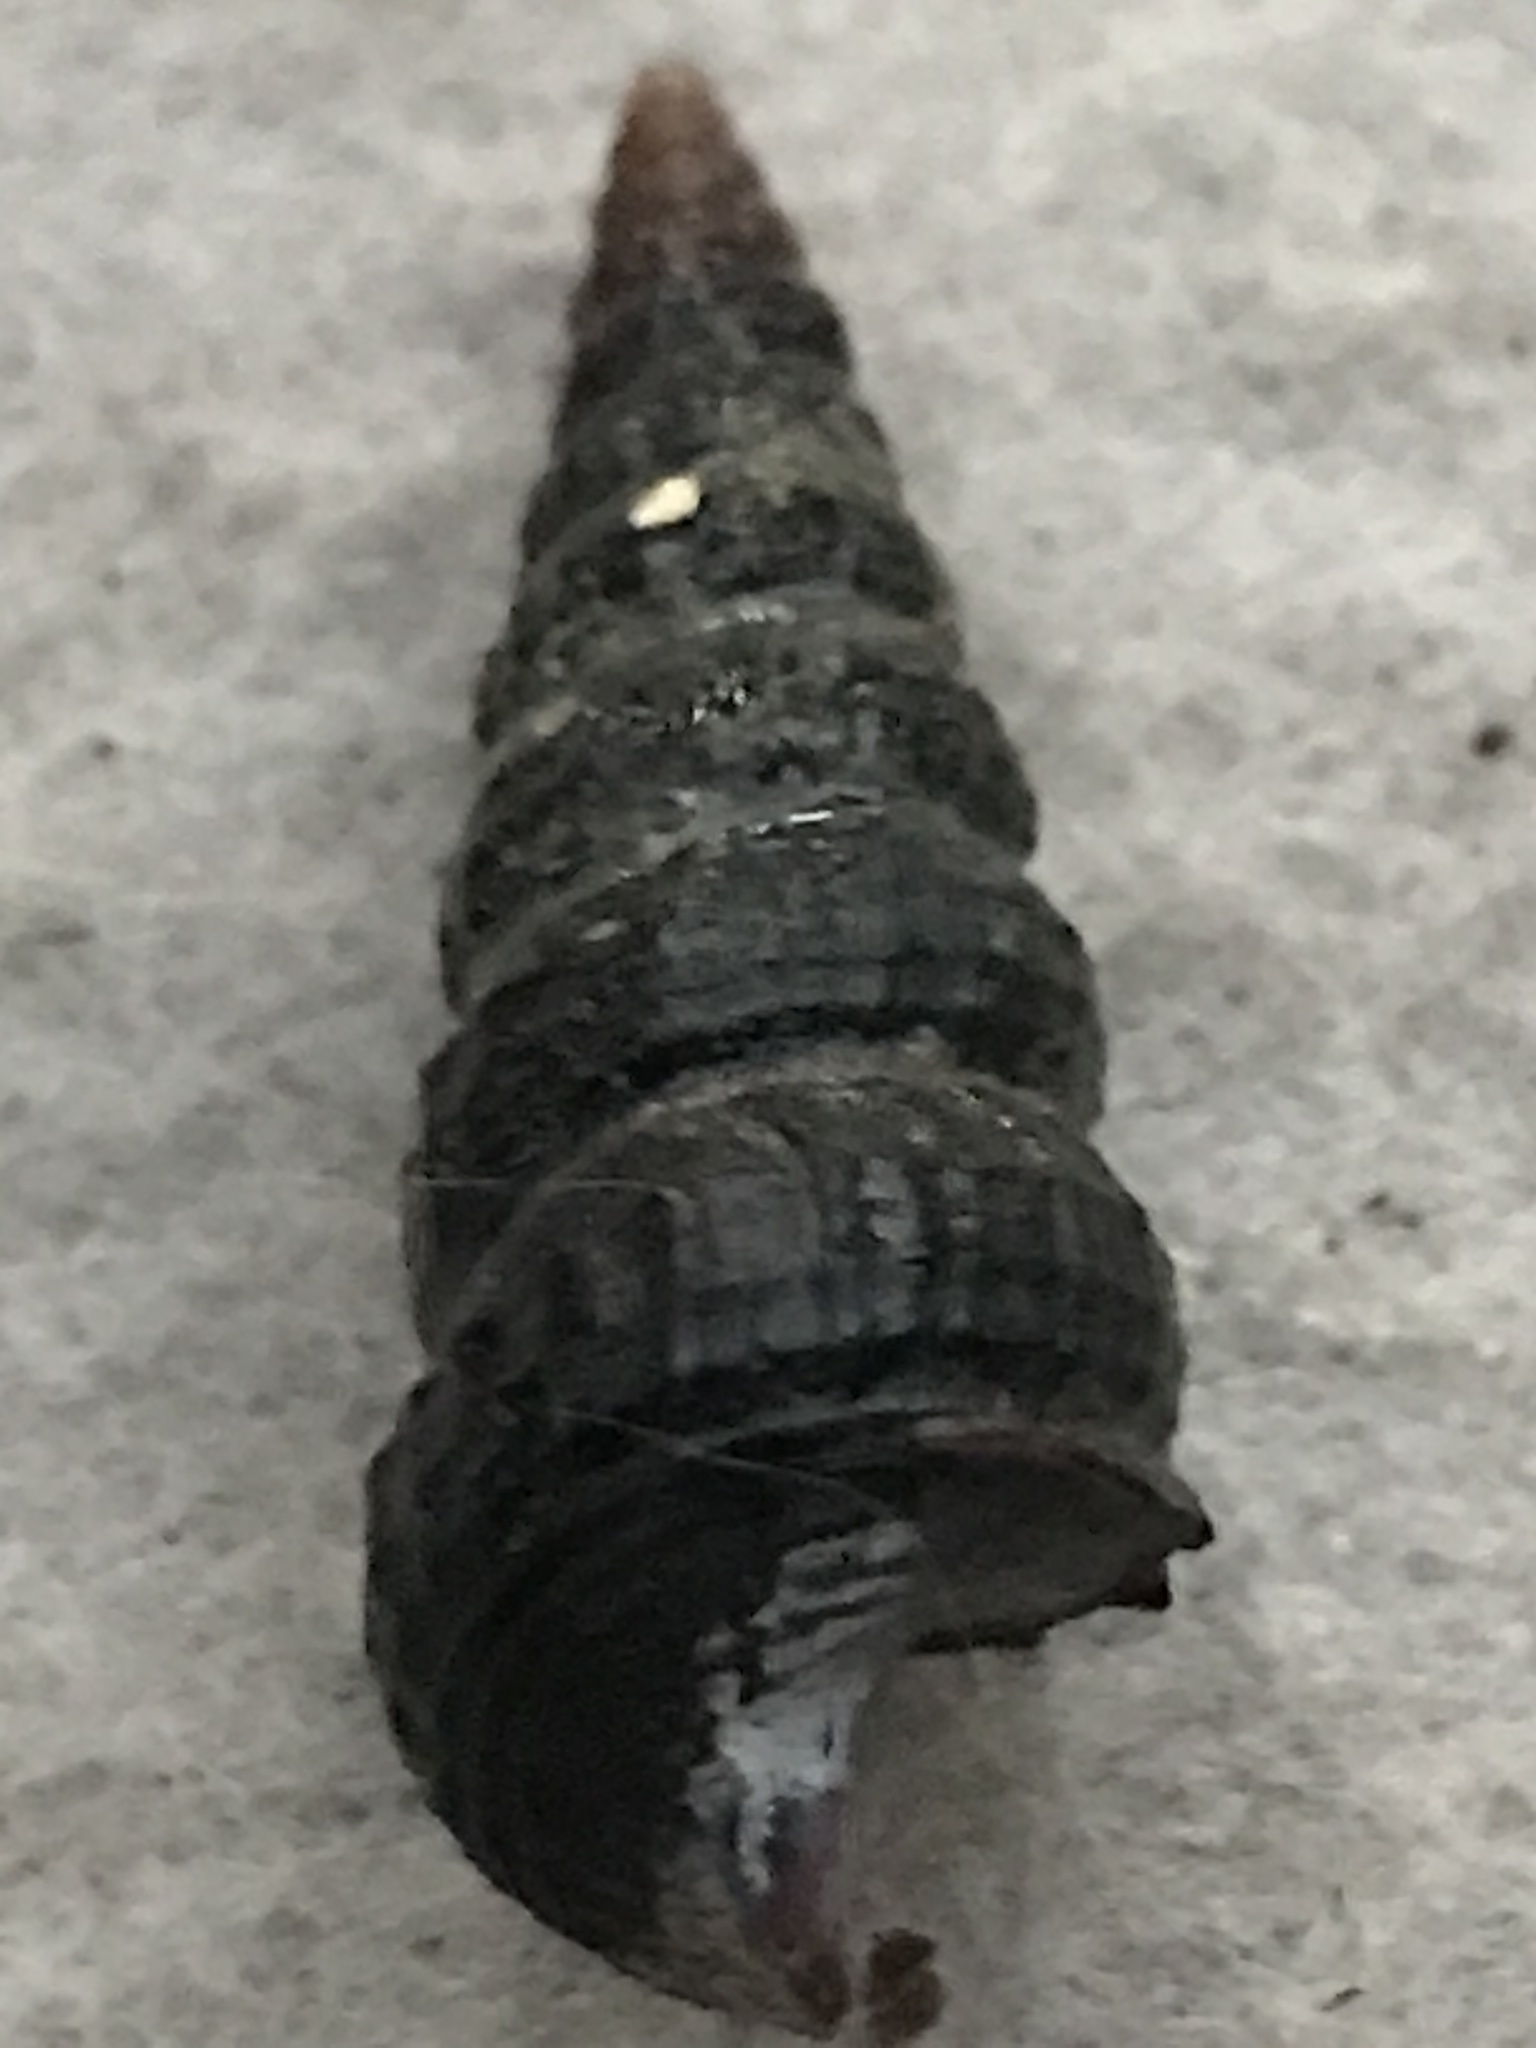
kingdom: Animalia
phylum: Mollusca
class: Gastropoda
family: Potamididae
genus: Cerithideopsis
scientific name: Cerithideopsis californica
